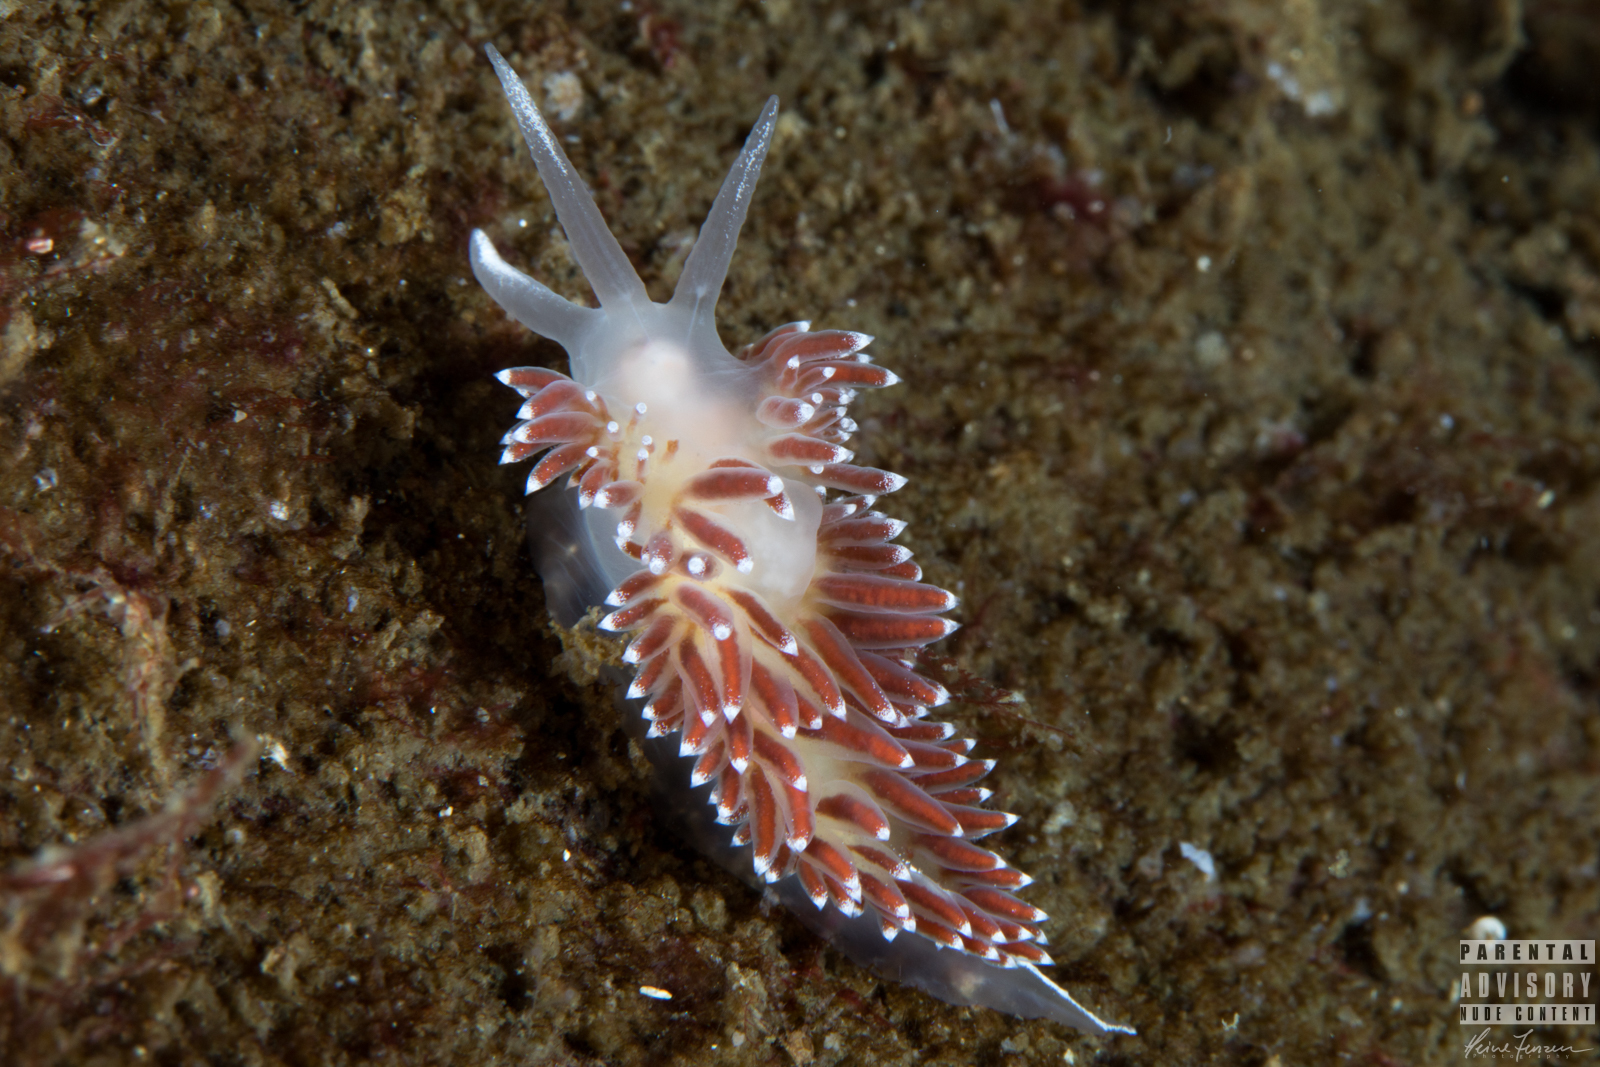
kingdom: Animalia
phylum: Mollusca
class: Gastropoda
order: Nudibranchia
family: Coryphellidae
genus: Coryphella
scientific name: Coryphella verrucosa
